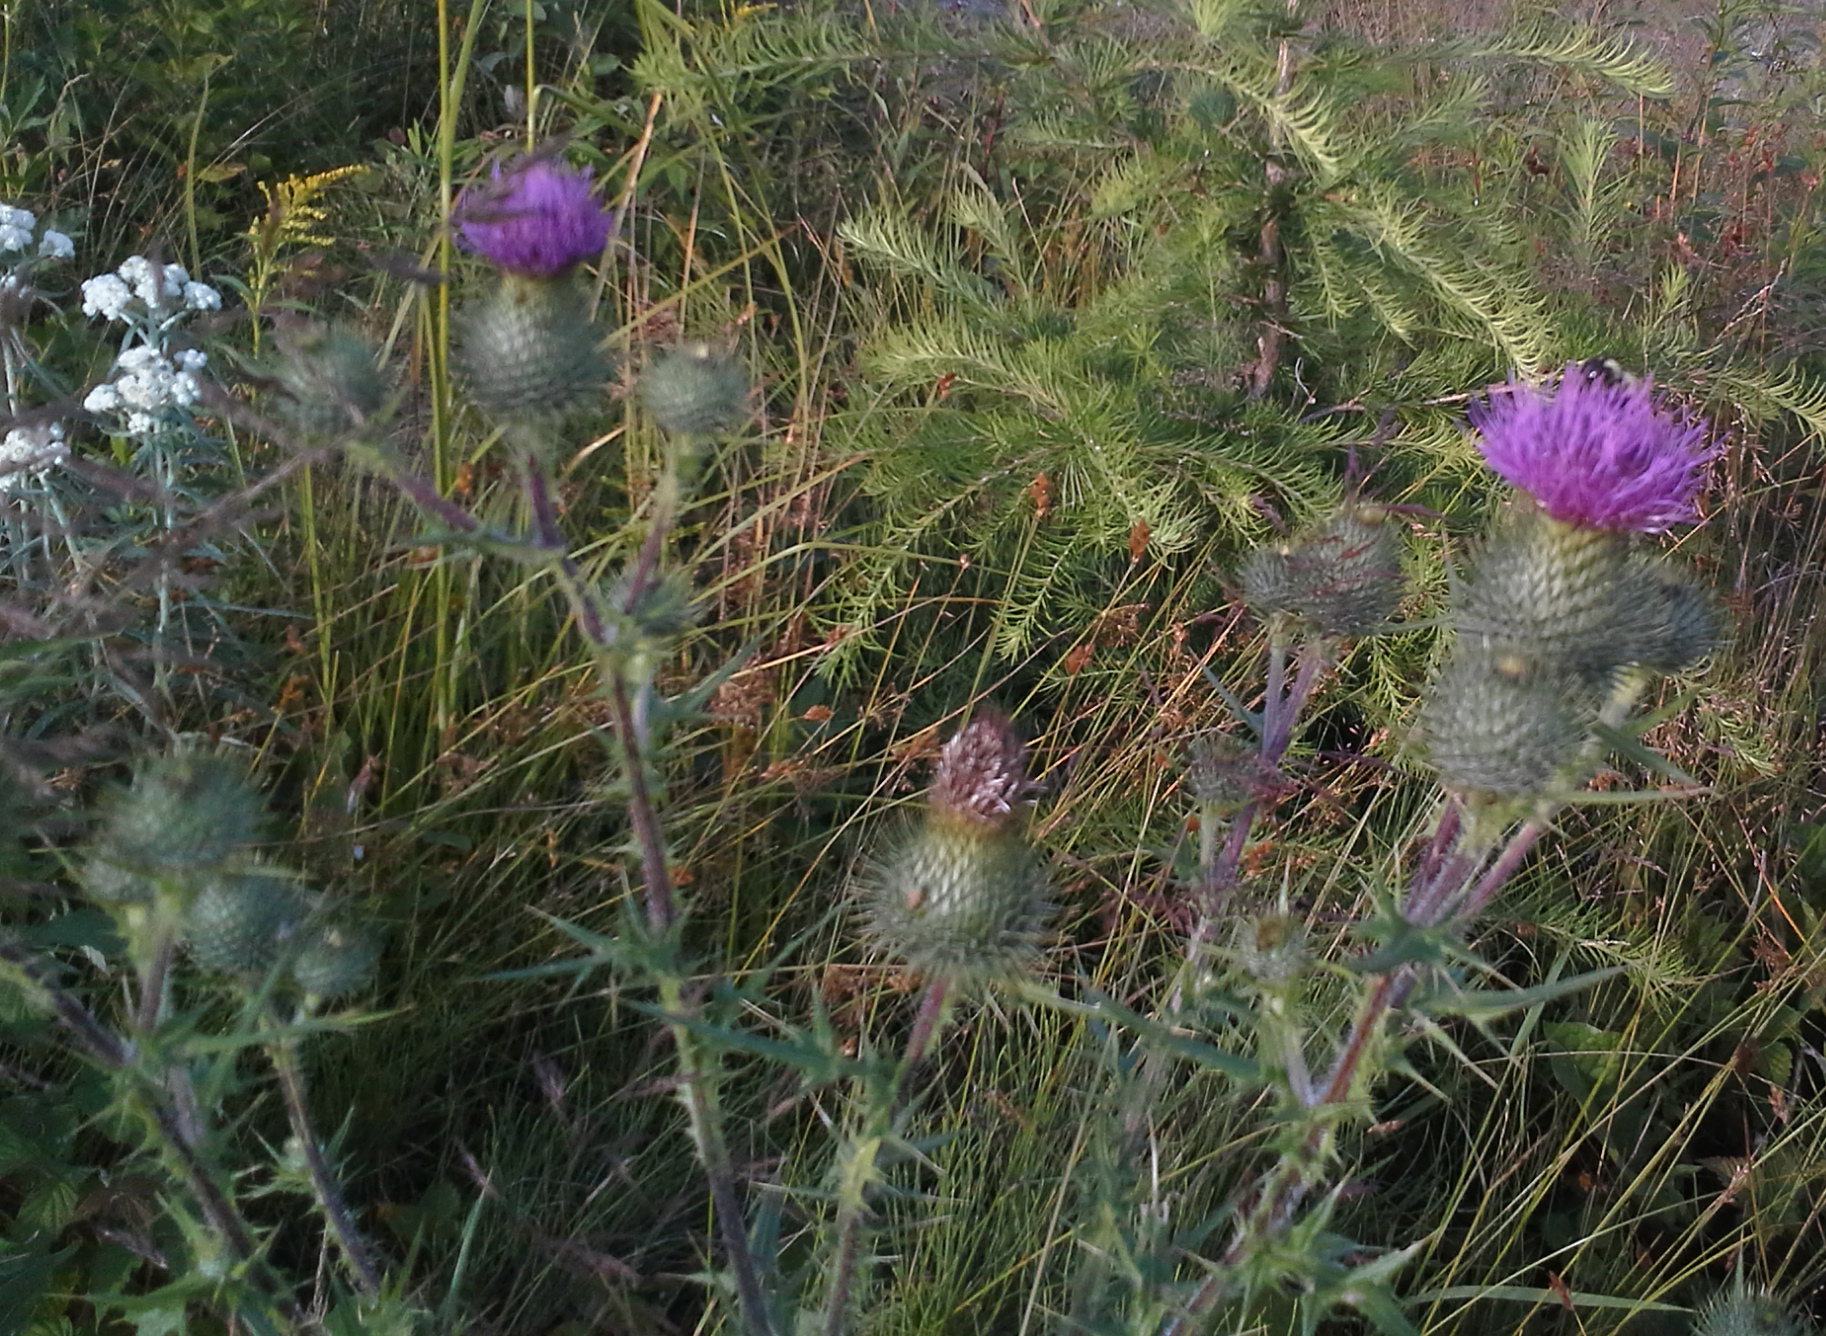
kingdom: Plantae
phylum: Tracheophyta
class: Magnoliopsida
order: Asterales
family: Asteraceae
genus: Cirsium
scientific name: Cirsium vulgare
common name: Bull thistle
